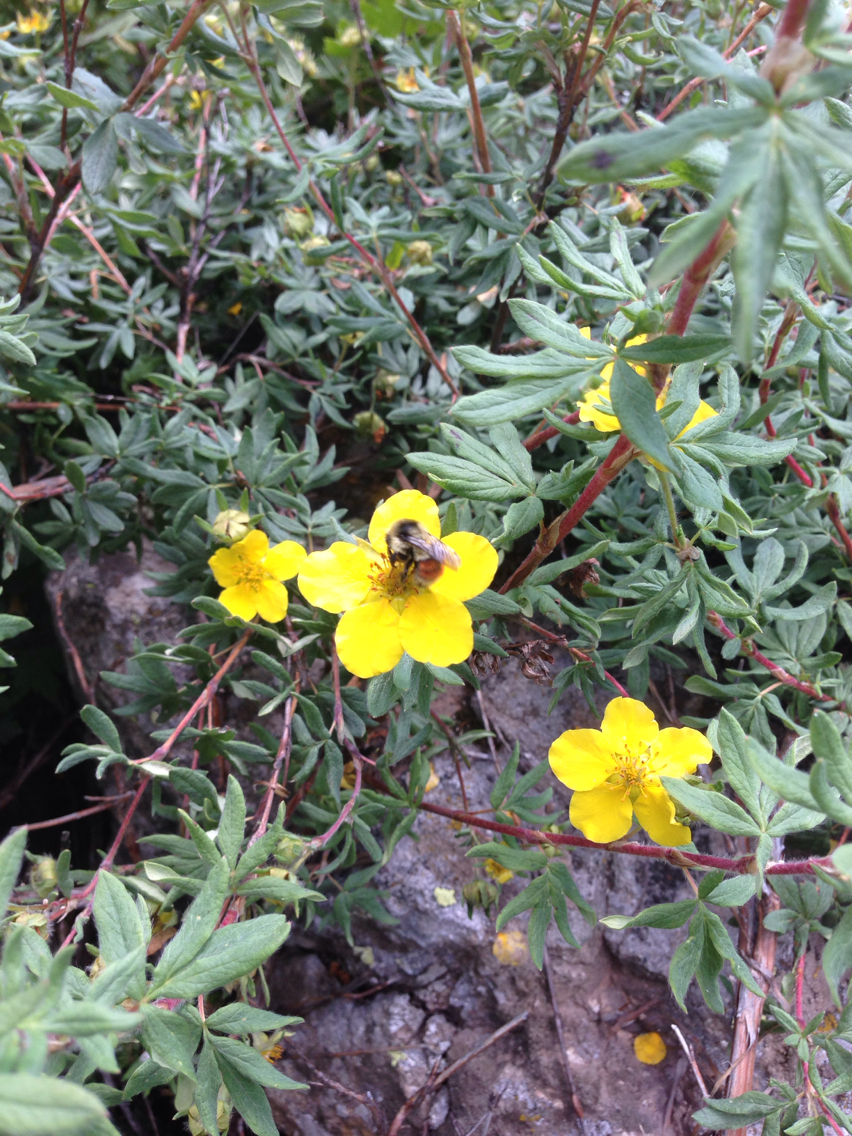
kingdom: Animalia
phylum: Arthropoda
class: Insecta
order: Hymenoptera
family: Apidae
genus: Bombus
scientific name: Bombus bifarius
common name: Two form bumble bee
